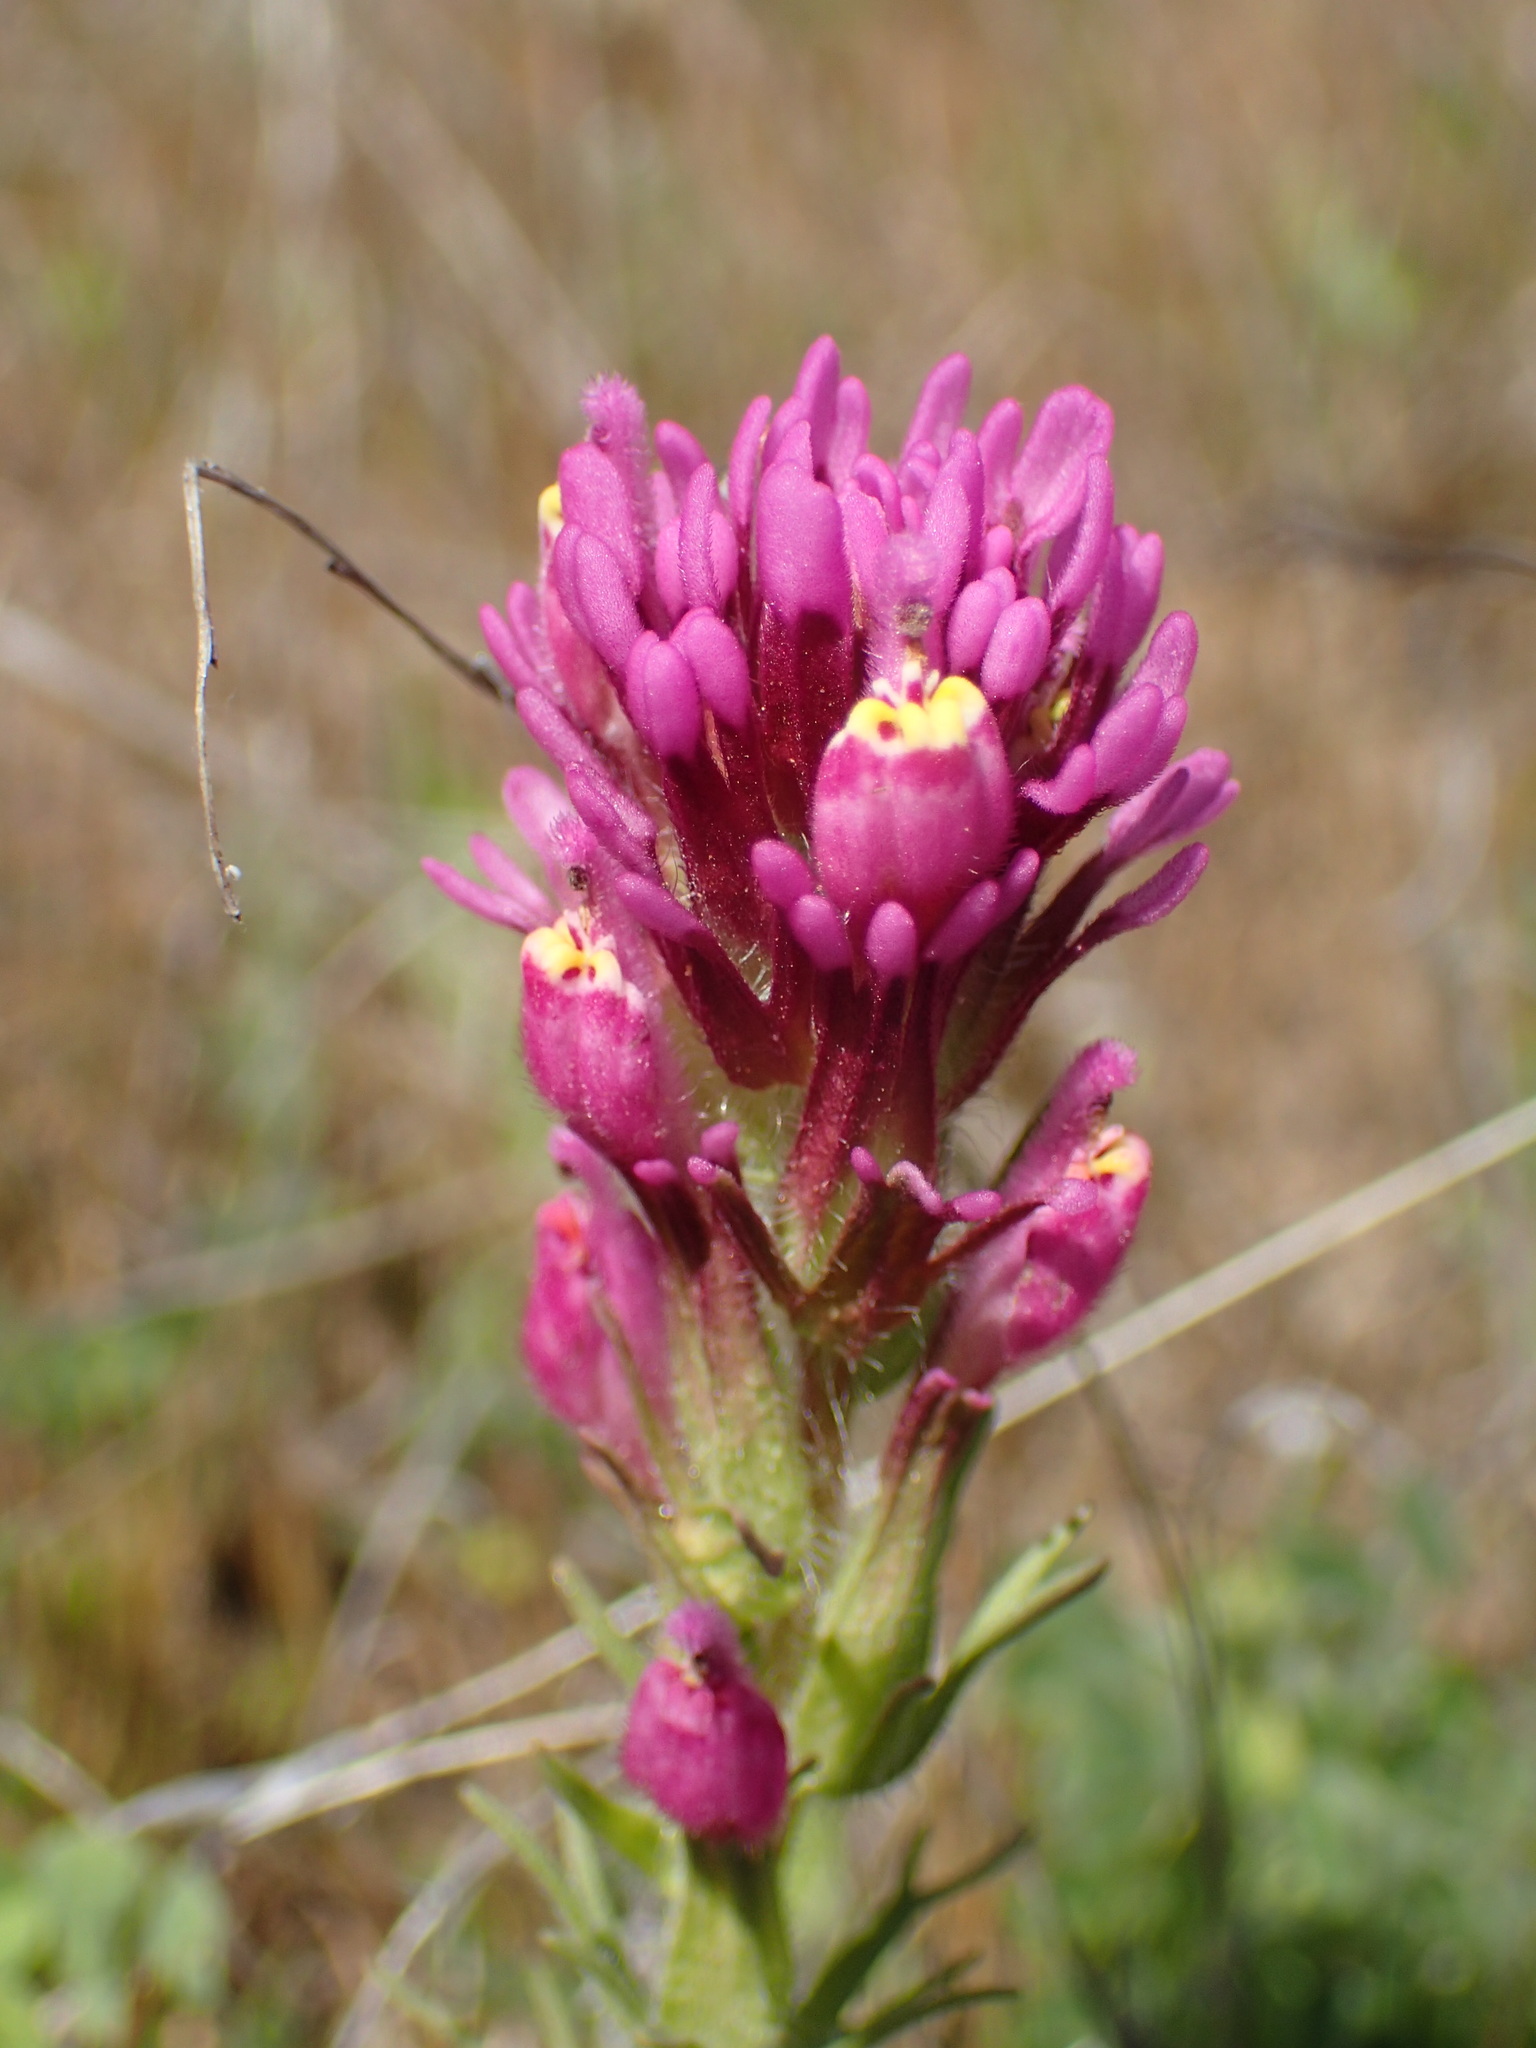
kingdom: Plantae
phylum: Tracheophyta
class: Magnoliopsida
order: Lamiales
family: Orobanchaceae
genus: Castilleja
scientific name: Castilleja exserta
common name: Purple owl-clover
